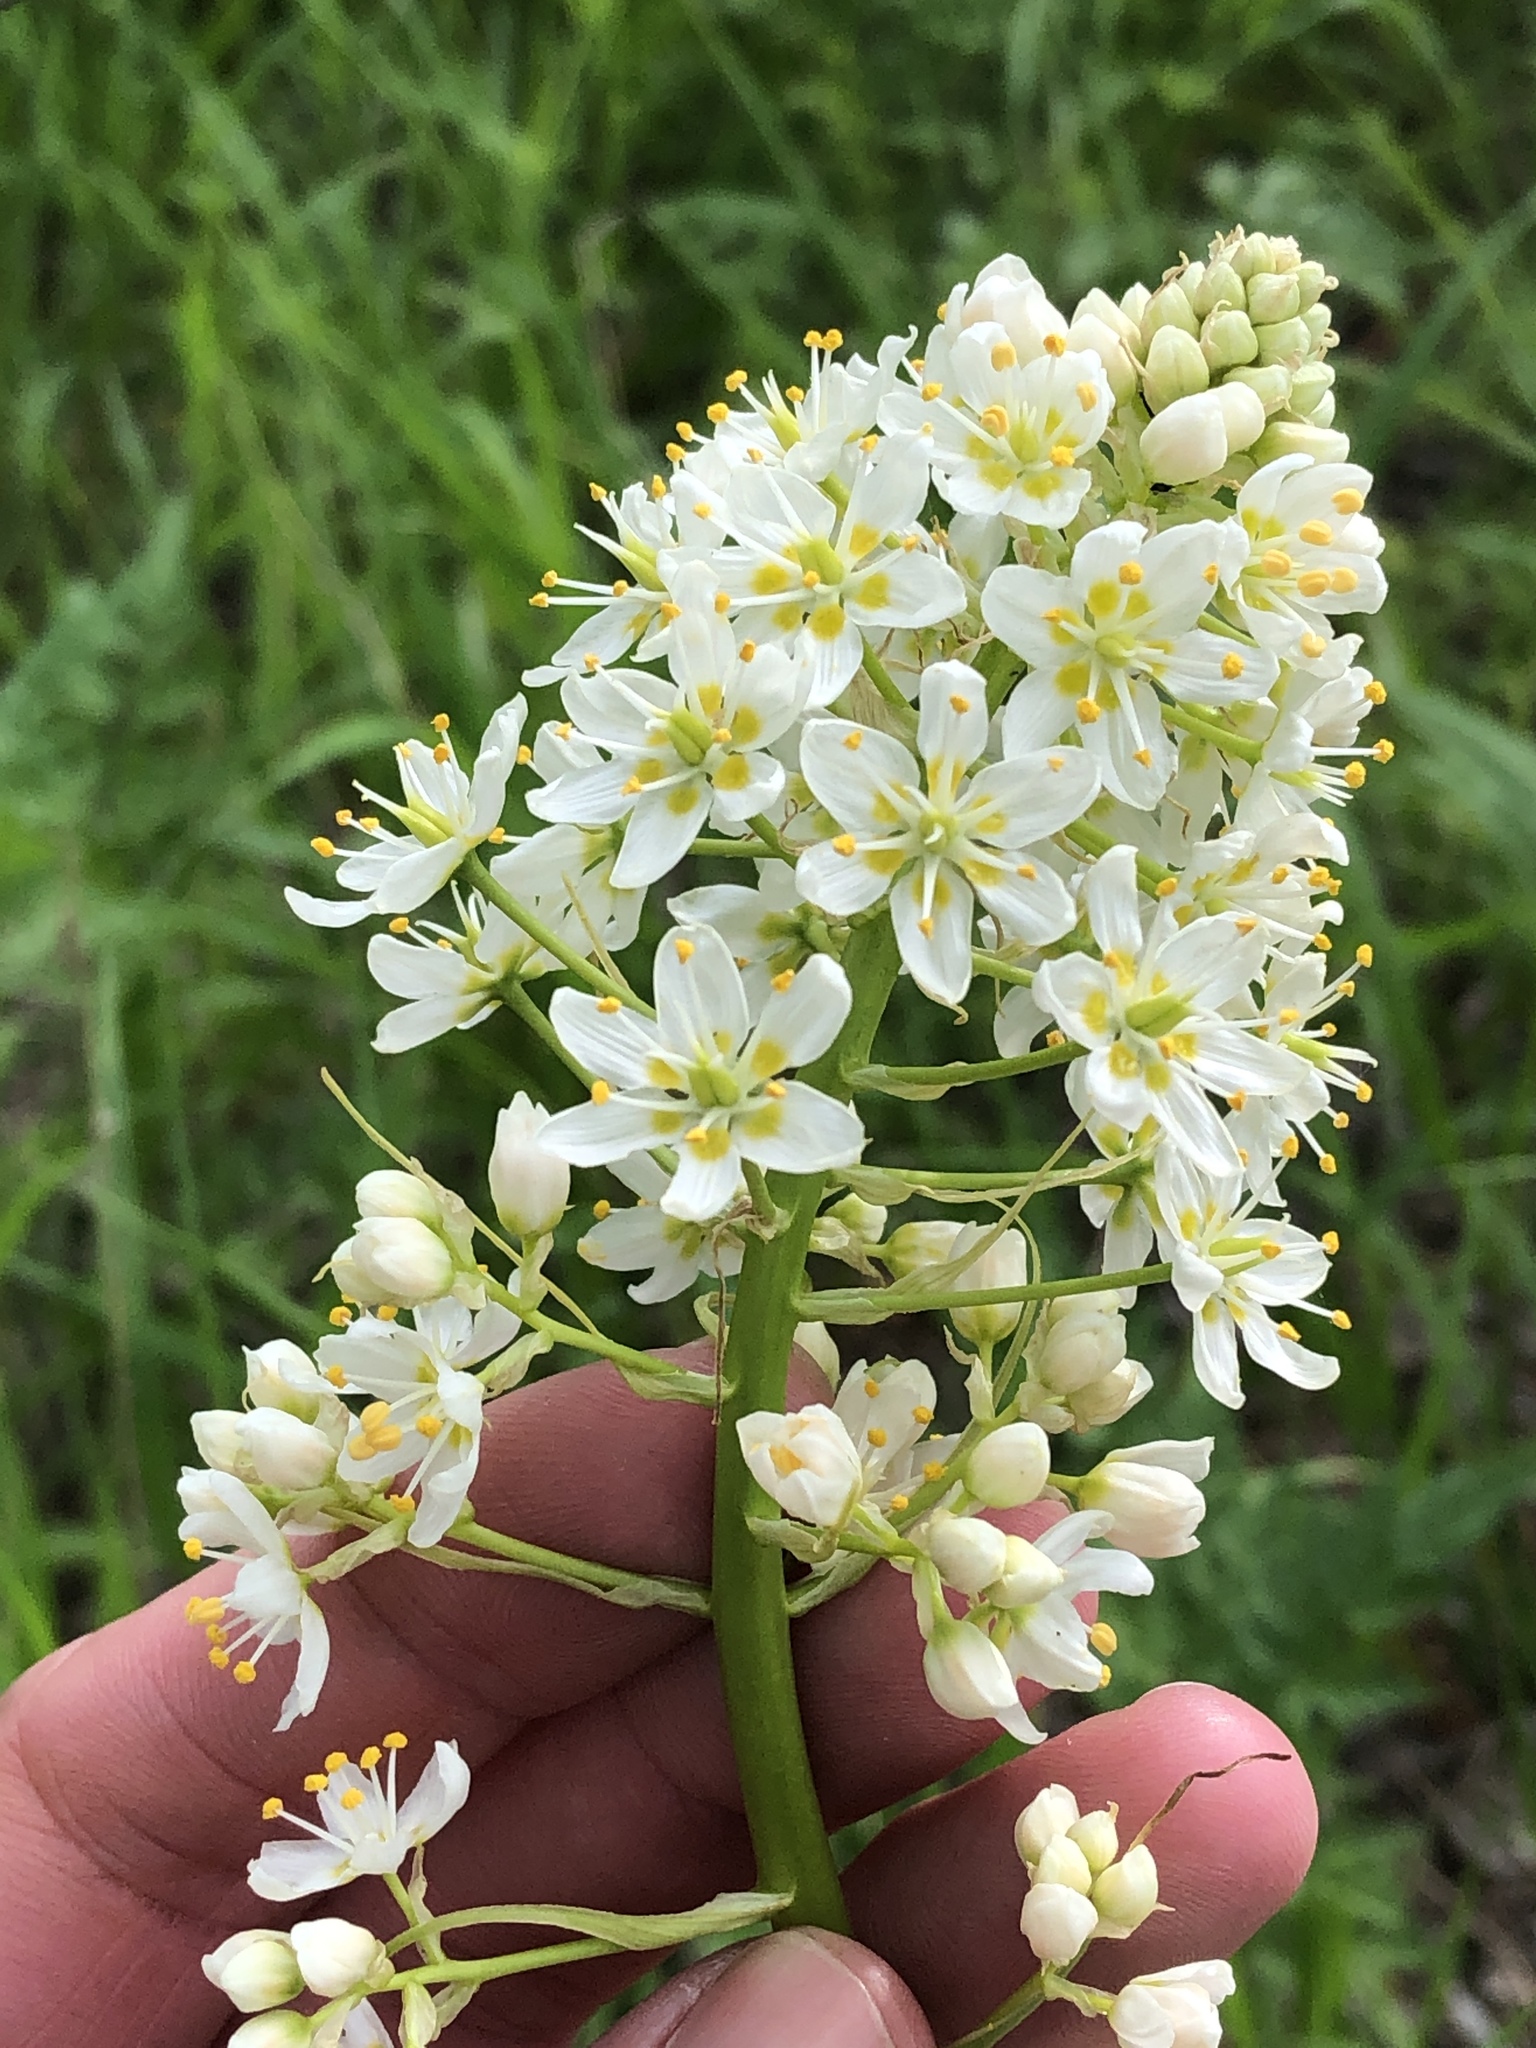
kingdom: Plantae
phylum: Tracheophyta
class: Liliopsida
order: Liliales
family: Melanthiaceae
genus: Toxicoscordion
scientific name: Toxicoscordion nuttallii
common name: Poison sego
